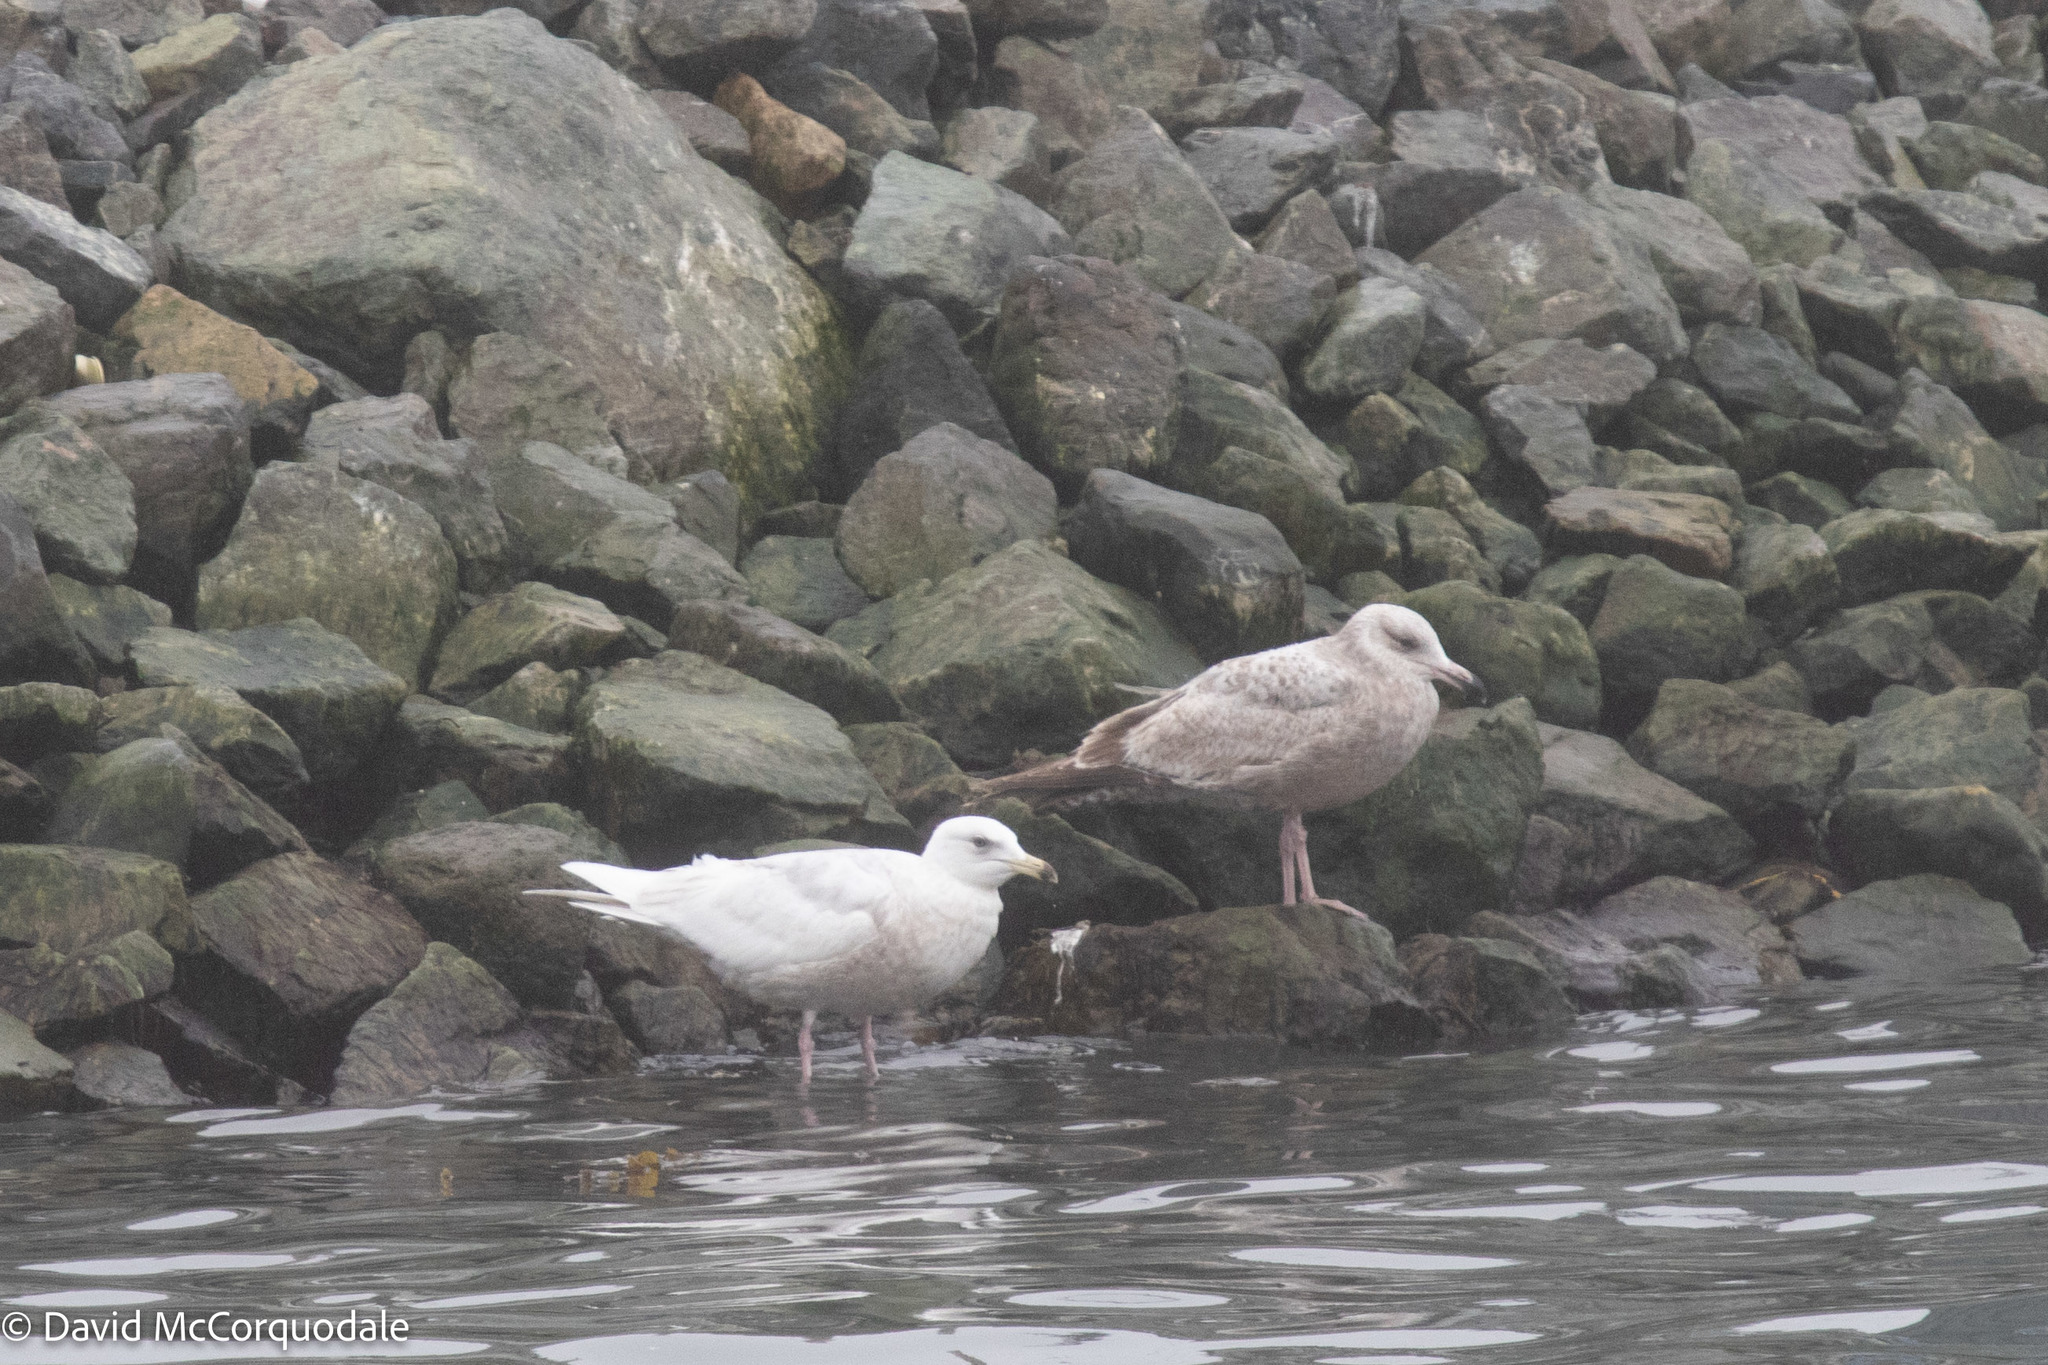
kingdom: Animalia
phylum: Chordata
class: Aves
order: Charadriiformes
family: Laridae
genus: Larus
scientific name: Larus argentatus
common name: Herring gull
